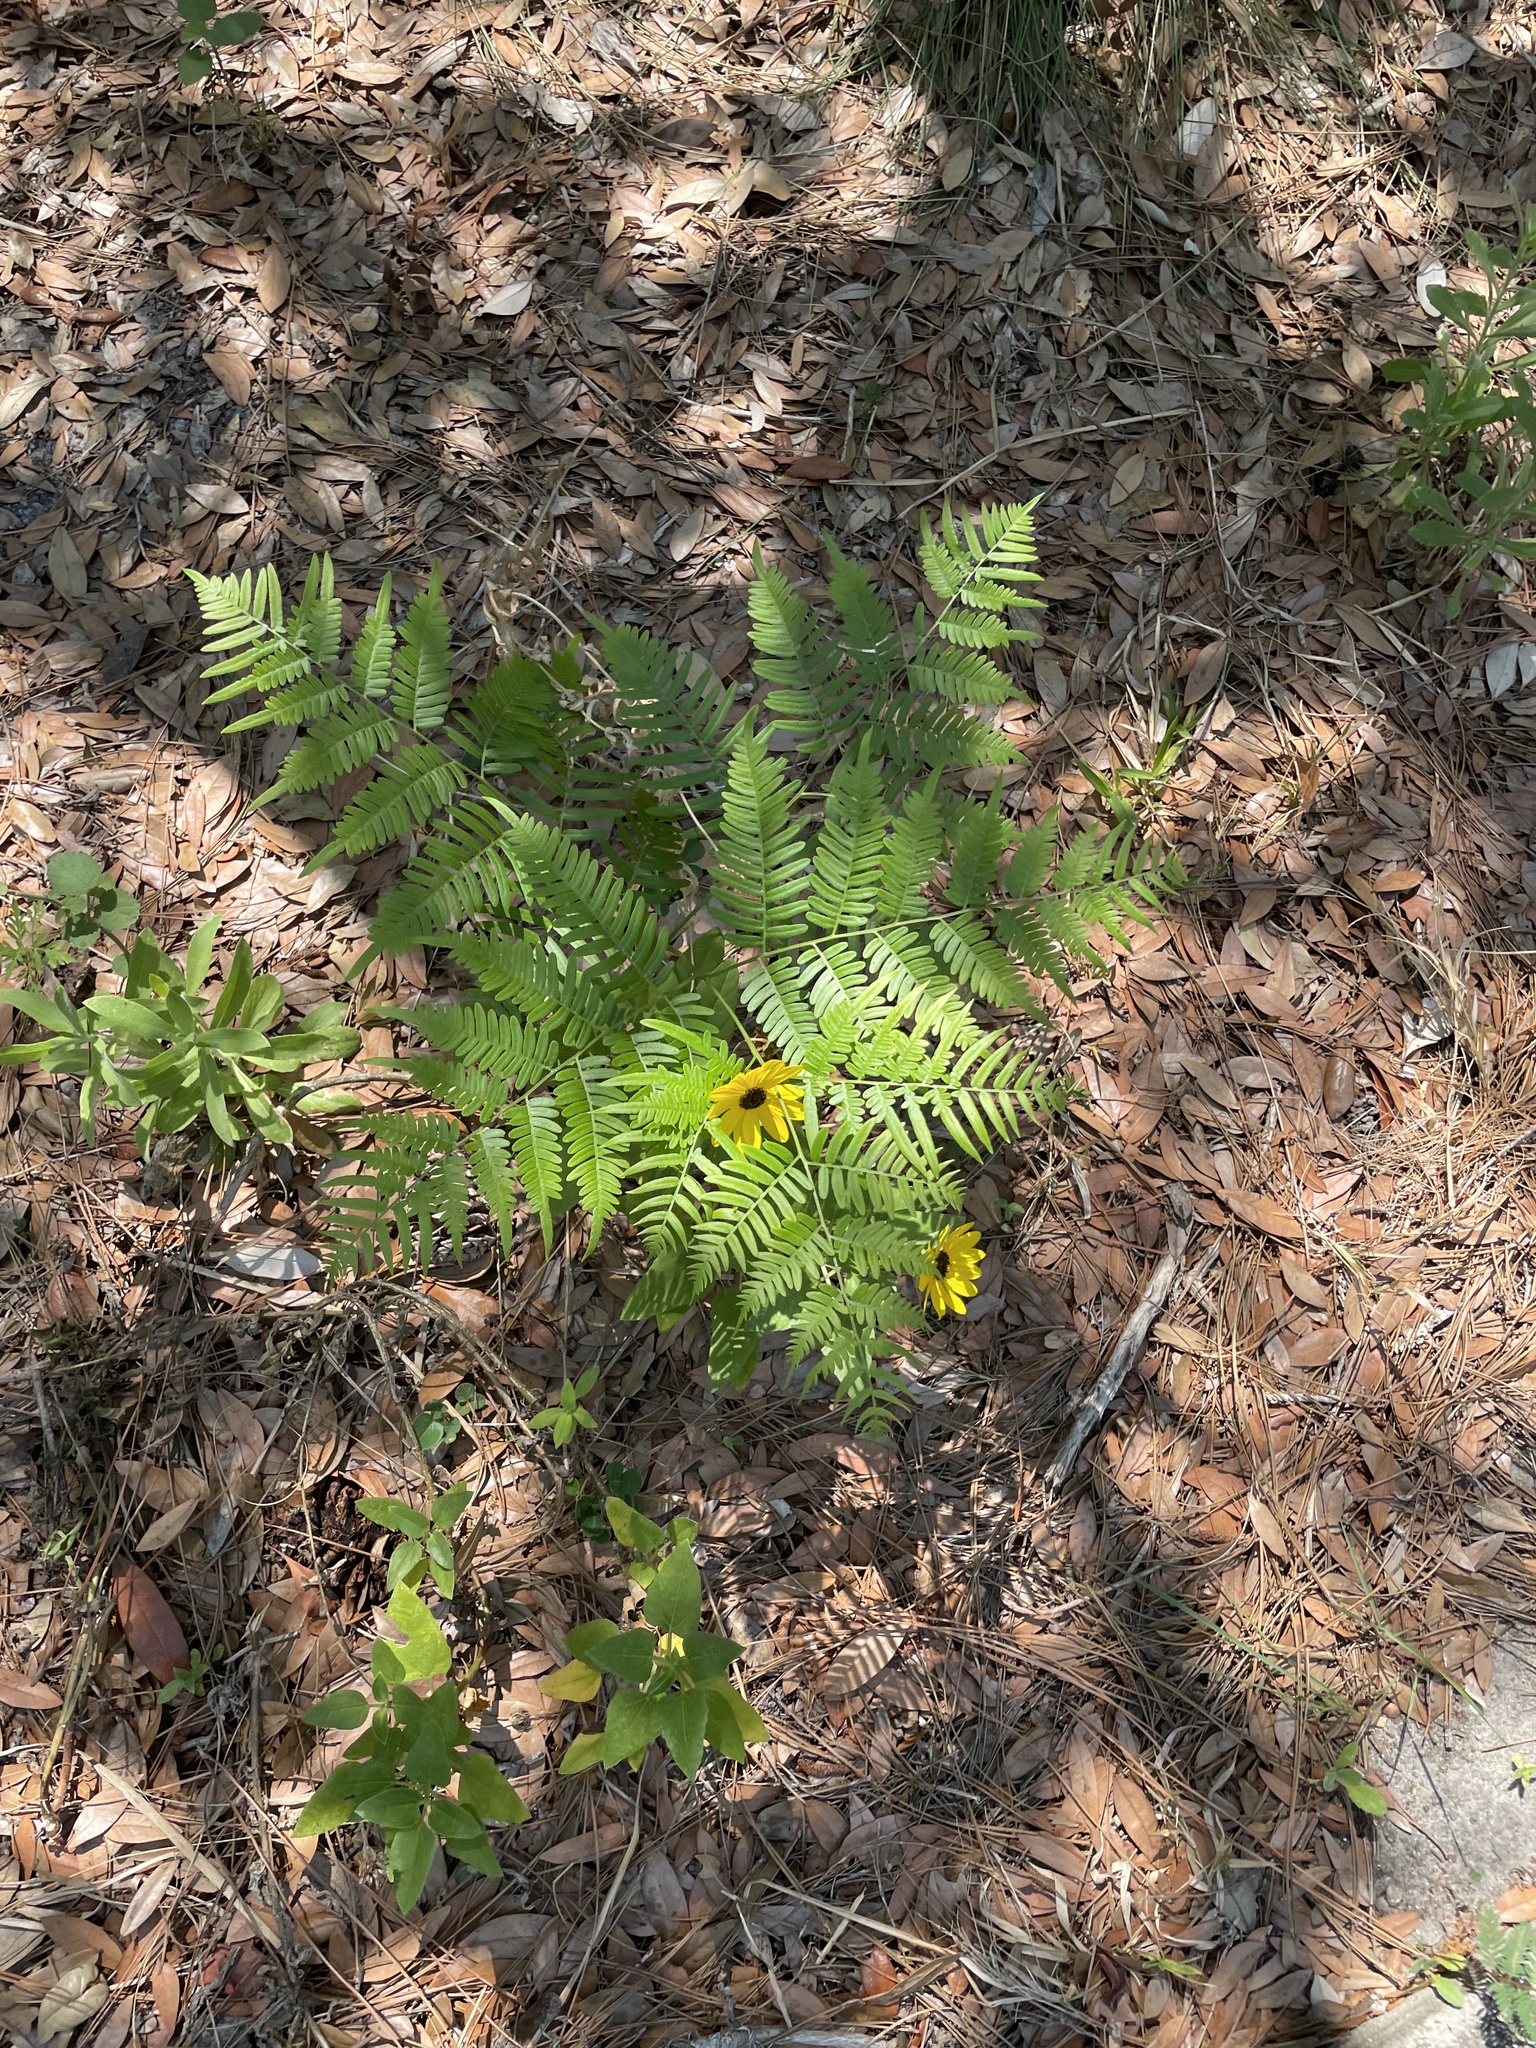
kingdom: Plantae
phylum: Tracheophyta
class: Polypodiopsida
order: Polypodiales
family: Dennstaedtiaceae
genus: Pteridium
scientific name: Pteridium
